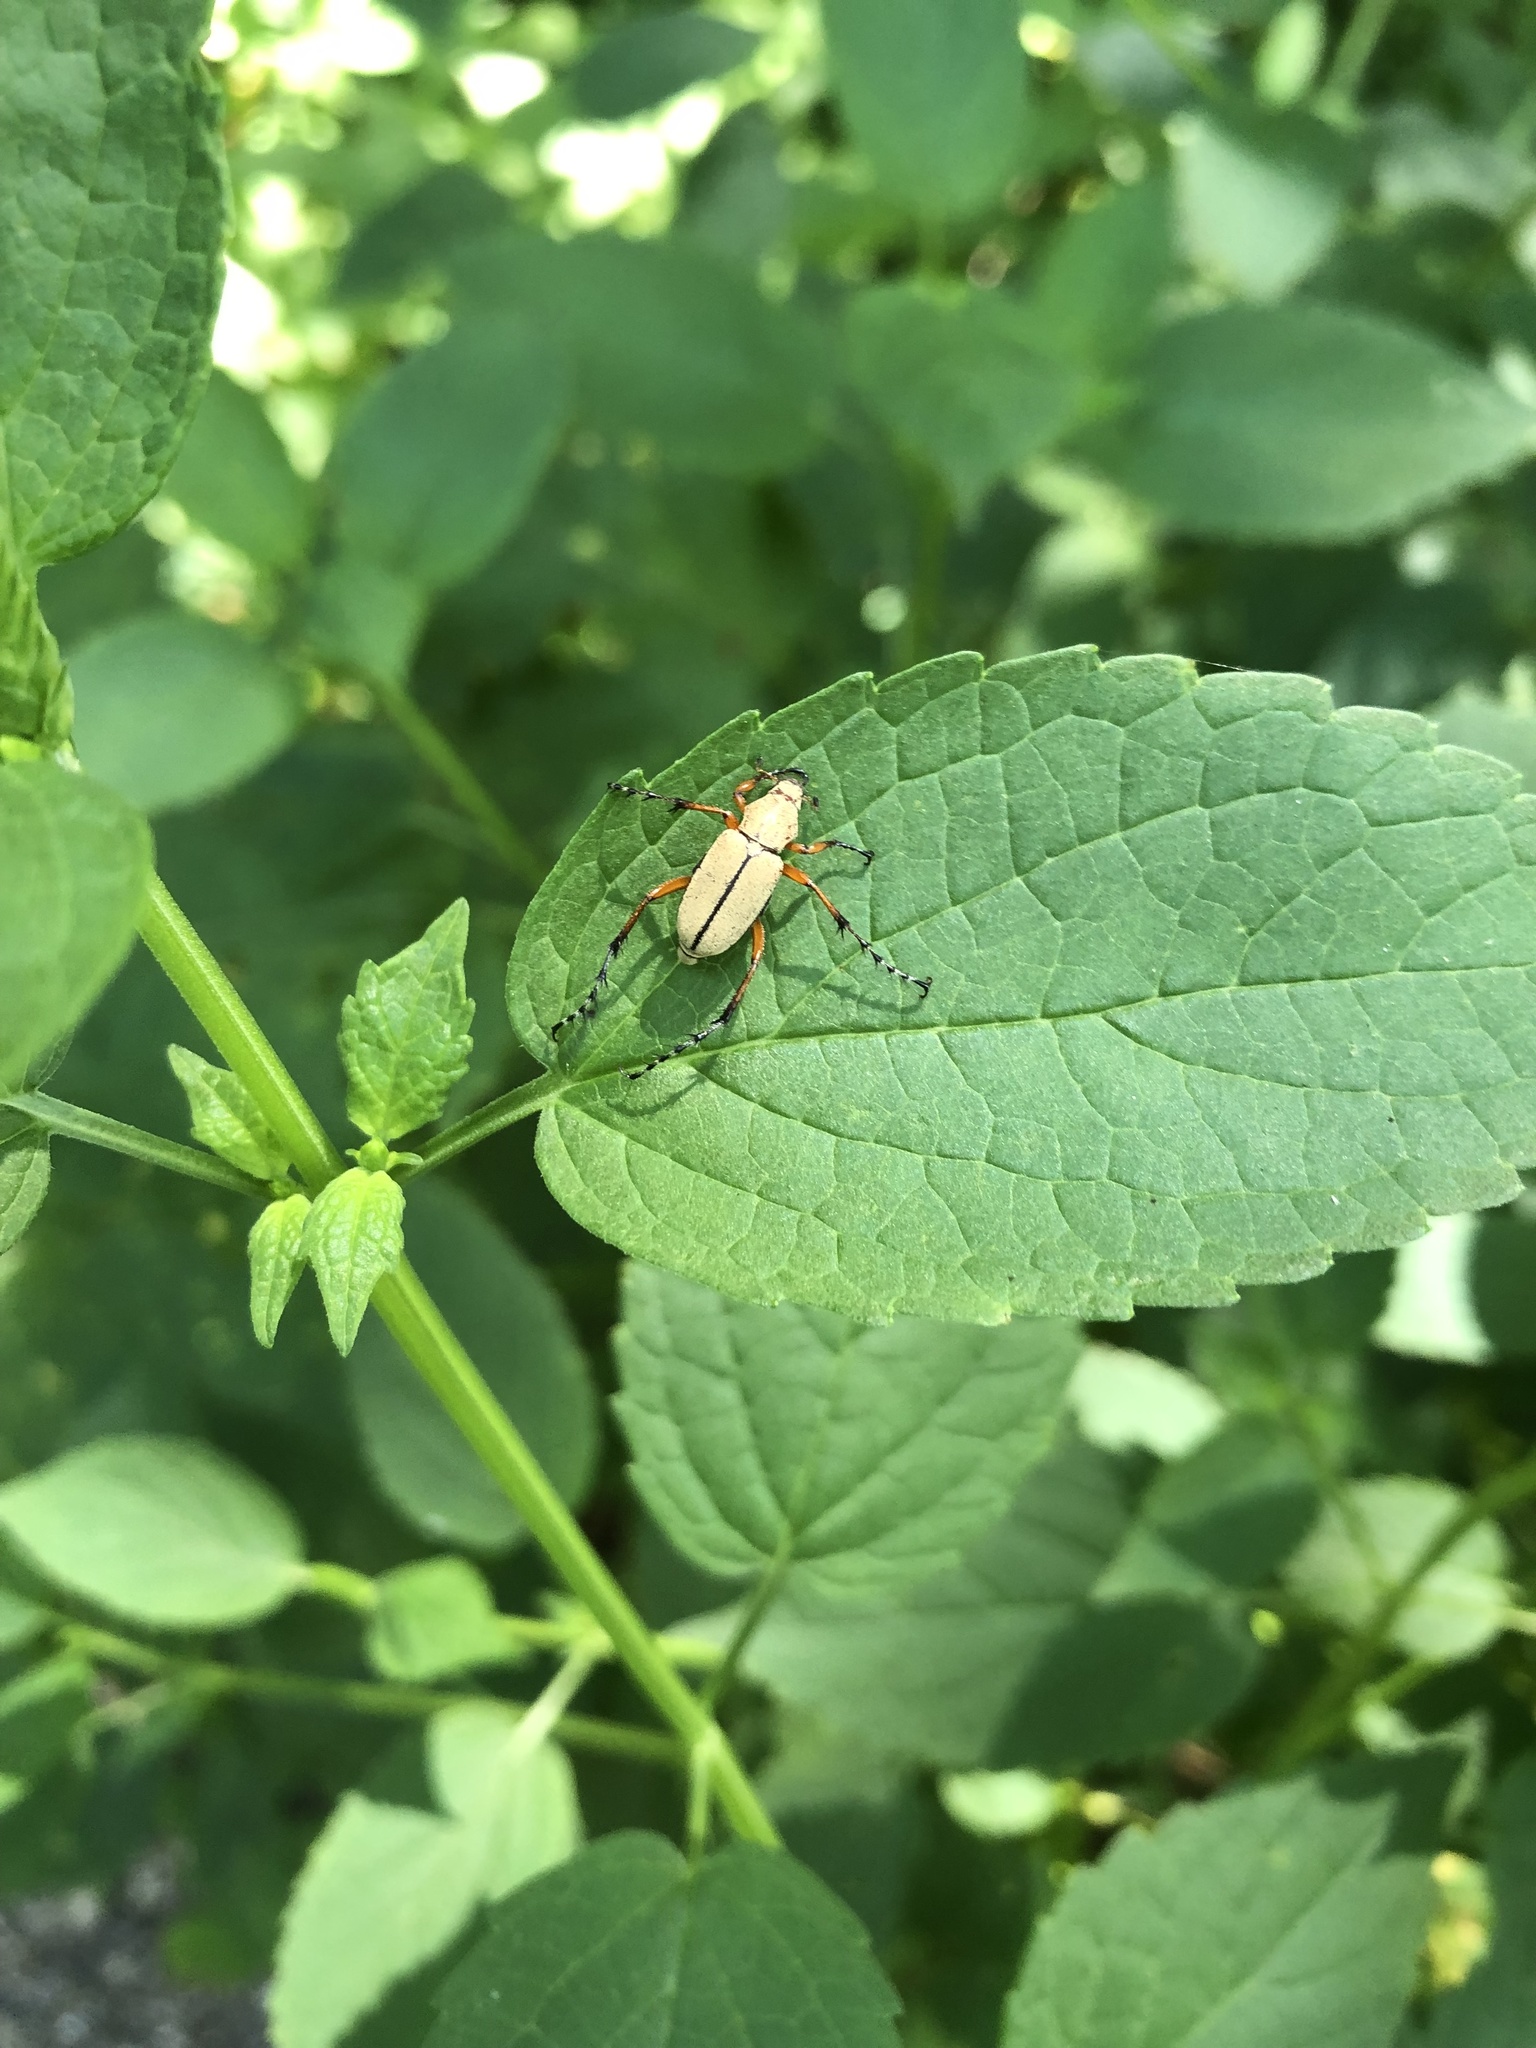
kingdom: Animalia
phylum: Arthropoda
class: Insecta
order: Coleoptera
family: Scarabaeidae
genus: Macrodactylus
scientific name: Macrodactylus subspinosus
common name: American rose chafer
